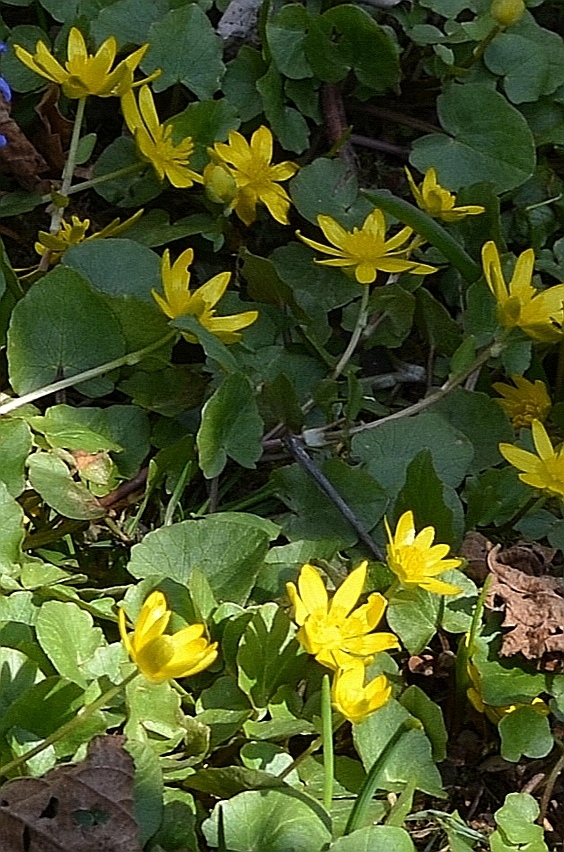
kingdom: Plantae
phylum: Tracheophyta
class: Magnoliopsida
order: Ranunculales
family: Ranunculaceae
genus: Ficaria
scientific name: Ficaria verna
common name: Lesser celandine
